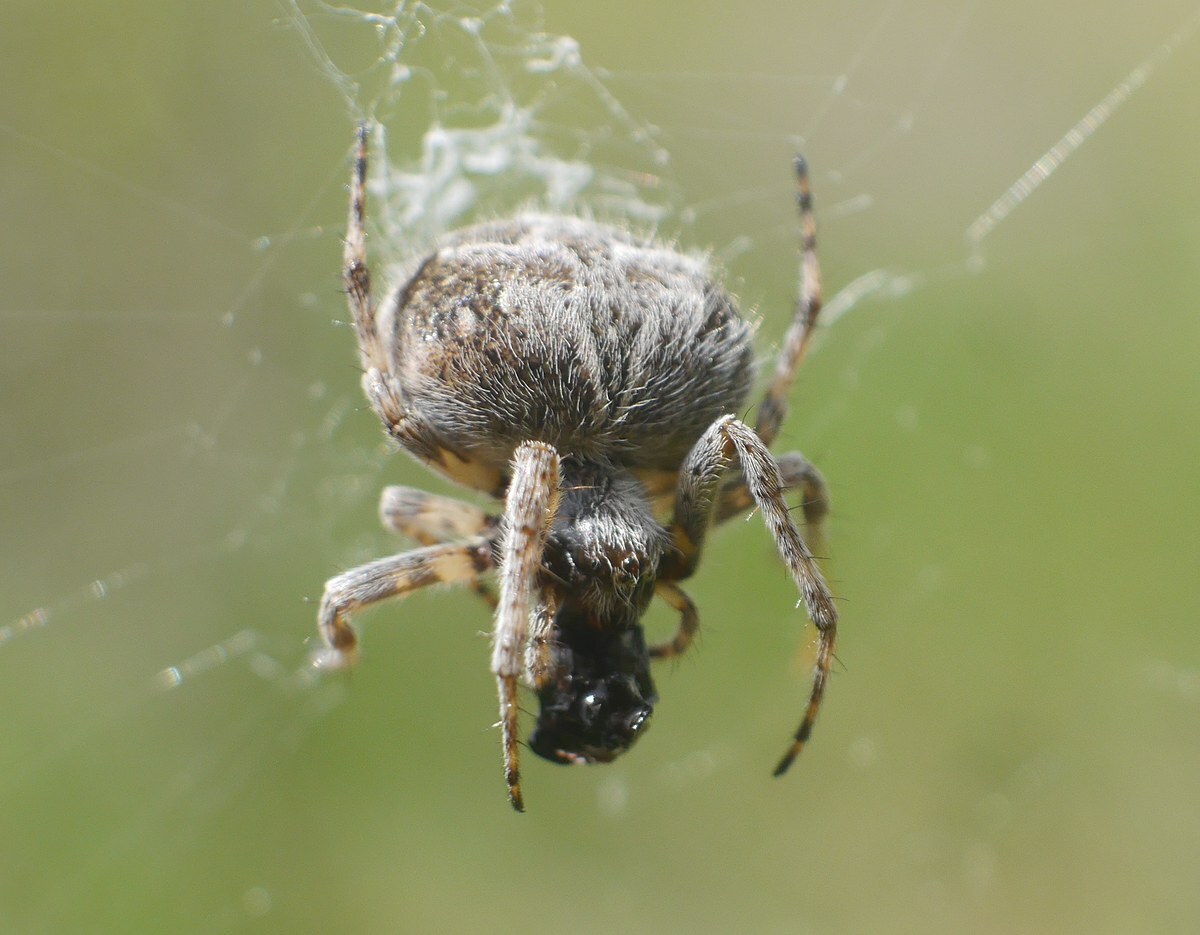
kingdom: Animalia
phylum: Arthropoda
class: Arachnida
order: Araneae
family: Araneidae
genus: Agalenatea
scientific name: Agalenatea redii
